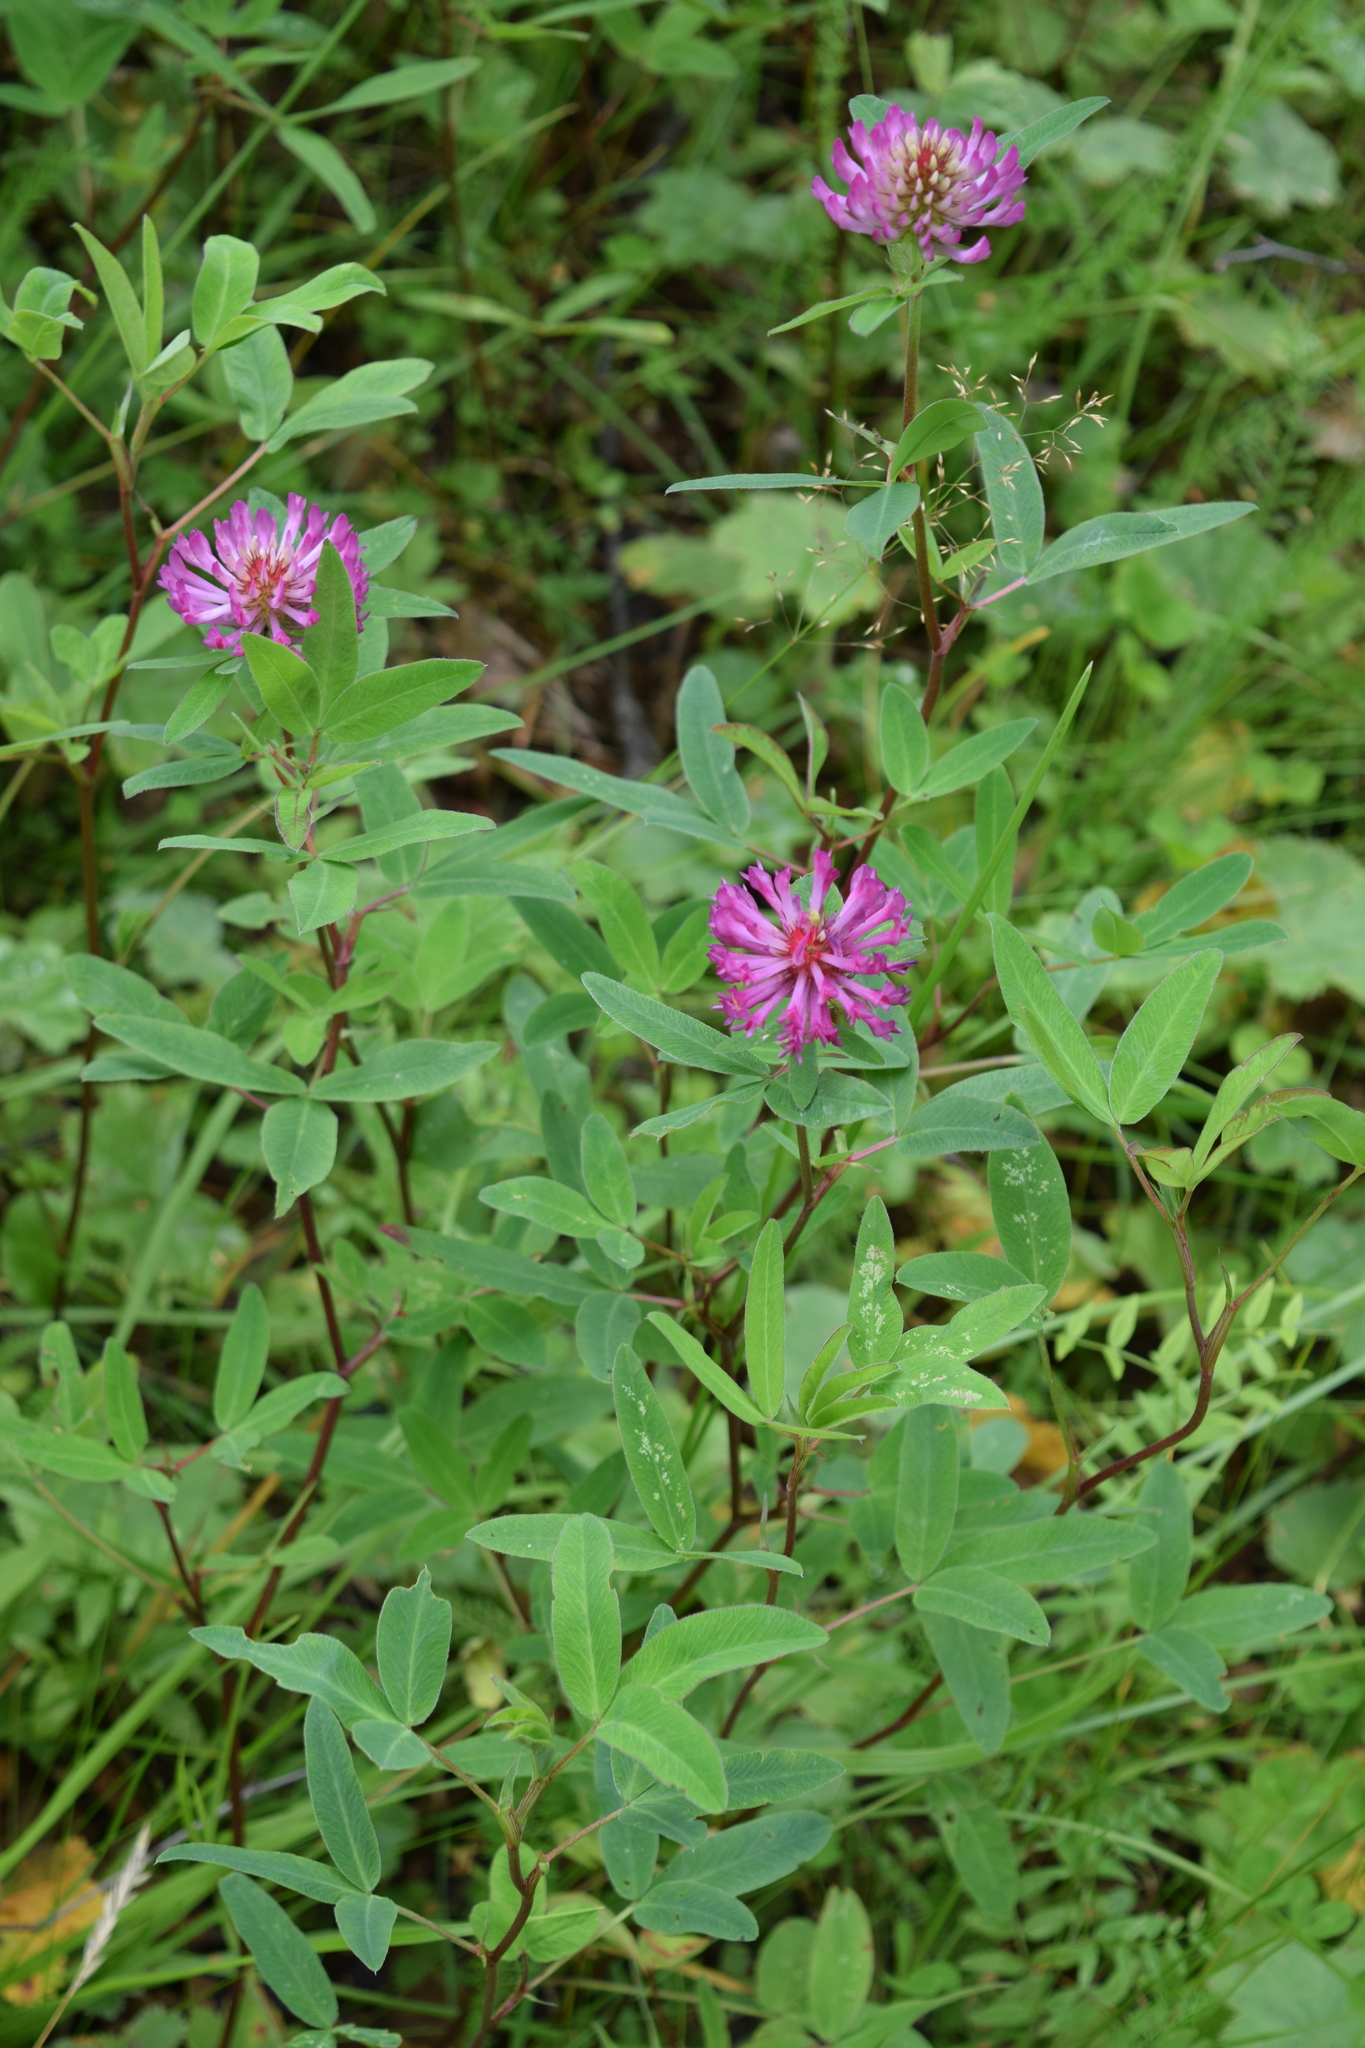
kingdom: Plantae
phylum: Tracheophyta
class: Magnoliopsida
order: Fabales
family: Fabaceae
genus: Trifolium
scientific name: Trifolium medium
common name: Zigzag clover
